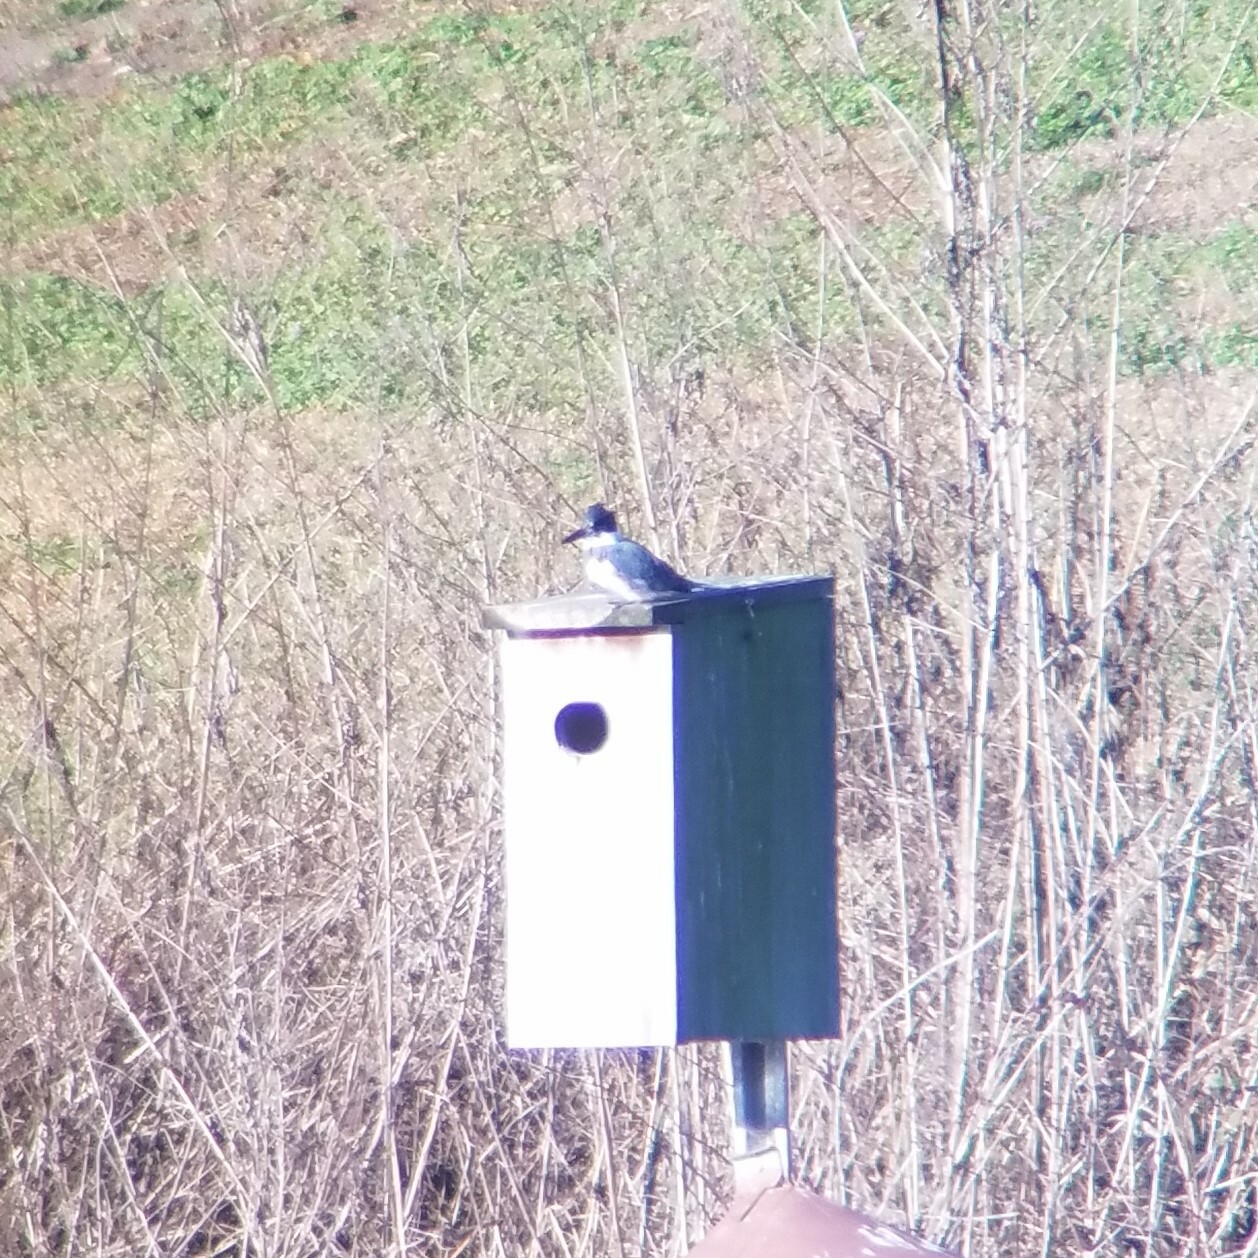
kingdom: Animalia
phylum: Chordata
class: Aves
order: Coraciiformes
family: Alcedinidae
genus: Megaceryle
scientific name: Megaceryle alcyon
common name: Belted kingfisher
